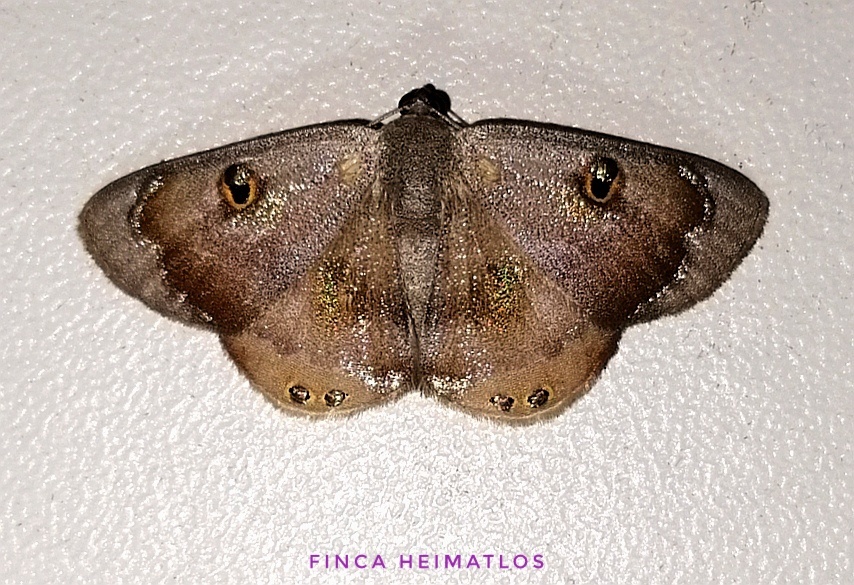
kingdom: Animalia
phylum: Arthropoda
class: Insecta
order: Lepidoptera
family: Geometridae
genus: Argyrotome
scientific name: Argyrotome metallicata
